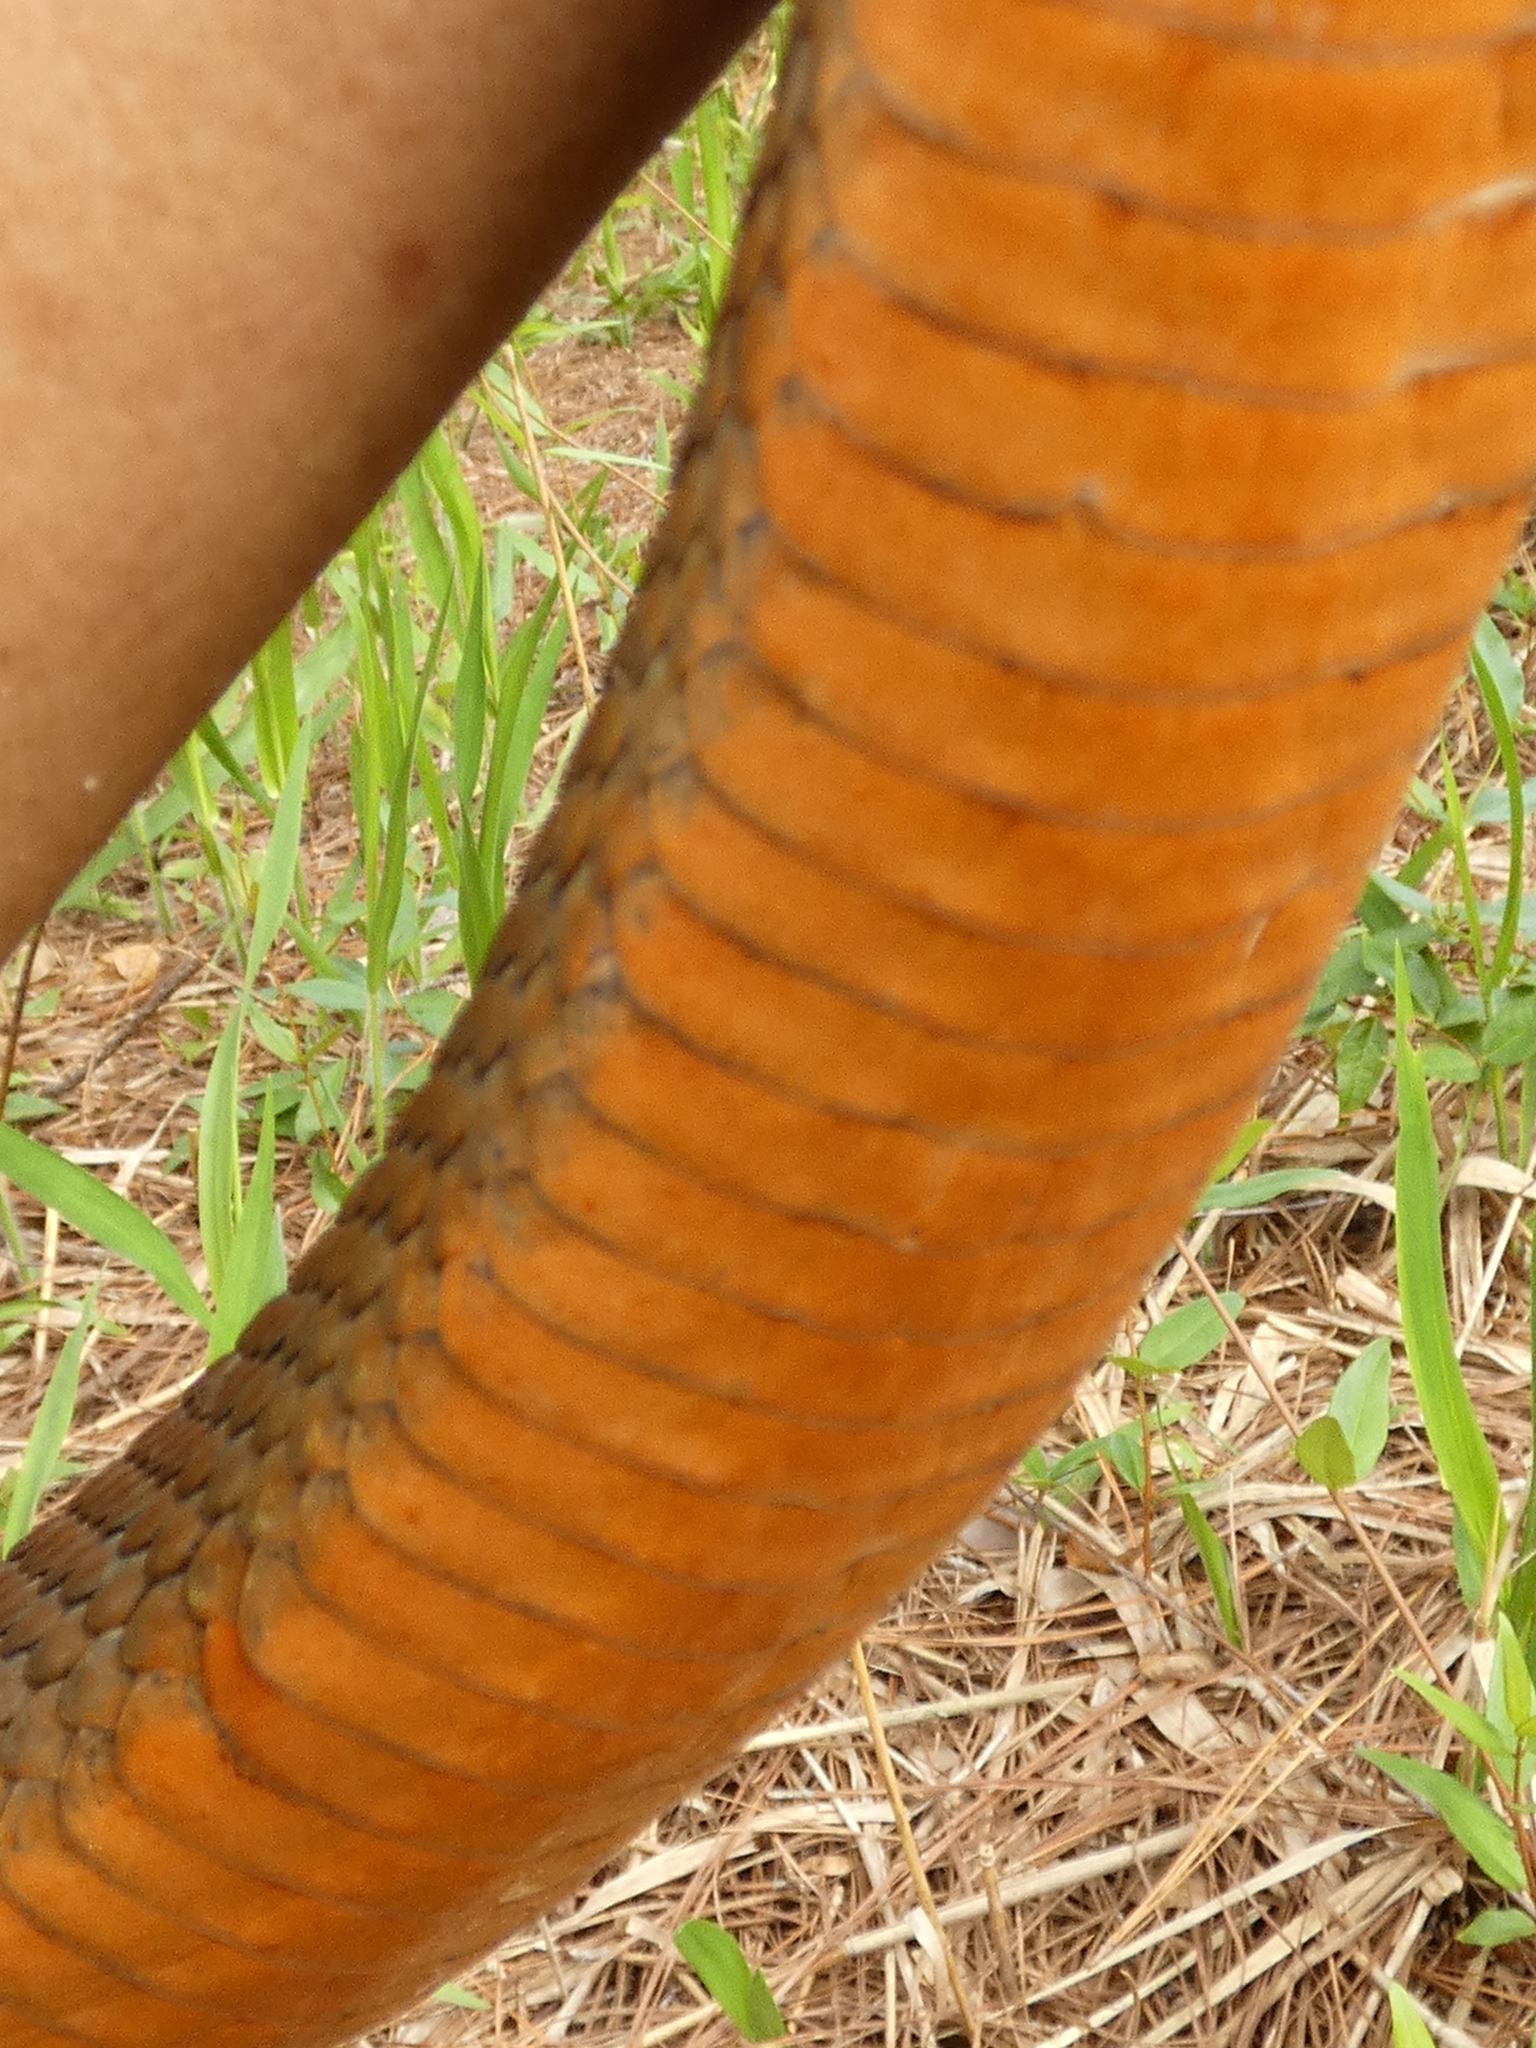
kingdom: Animalia
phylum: Chordata
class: Squamata
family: Colubridae
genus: Nerodia
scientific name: Nerodia erythrogaster
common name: Plainbelly water snake
